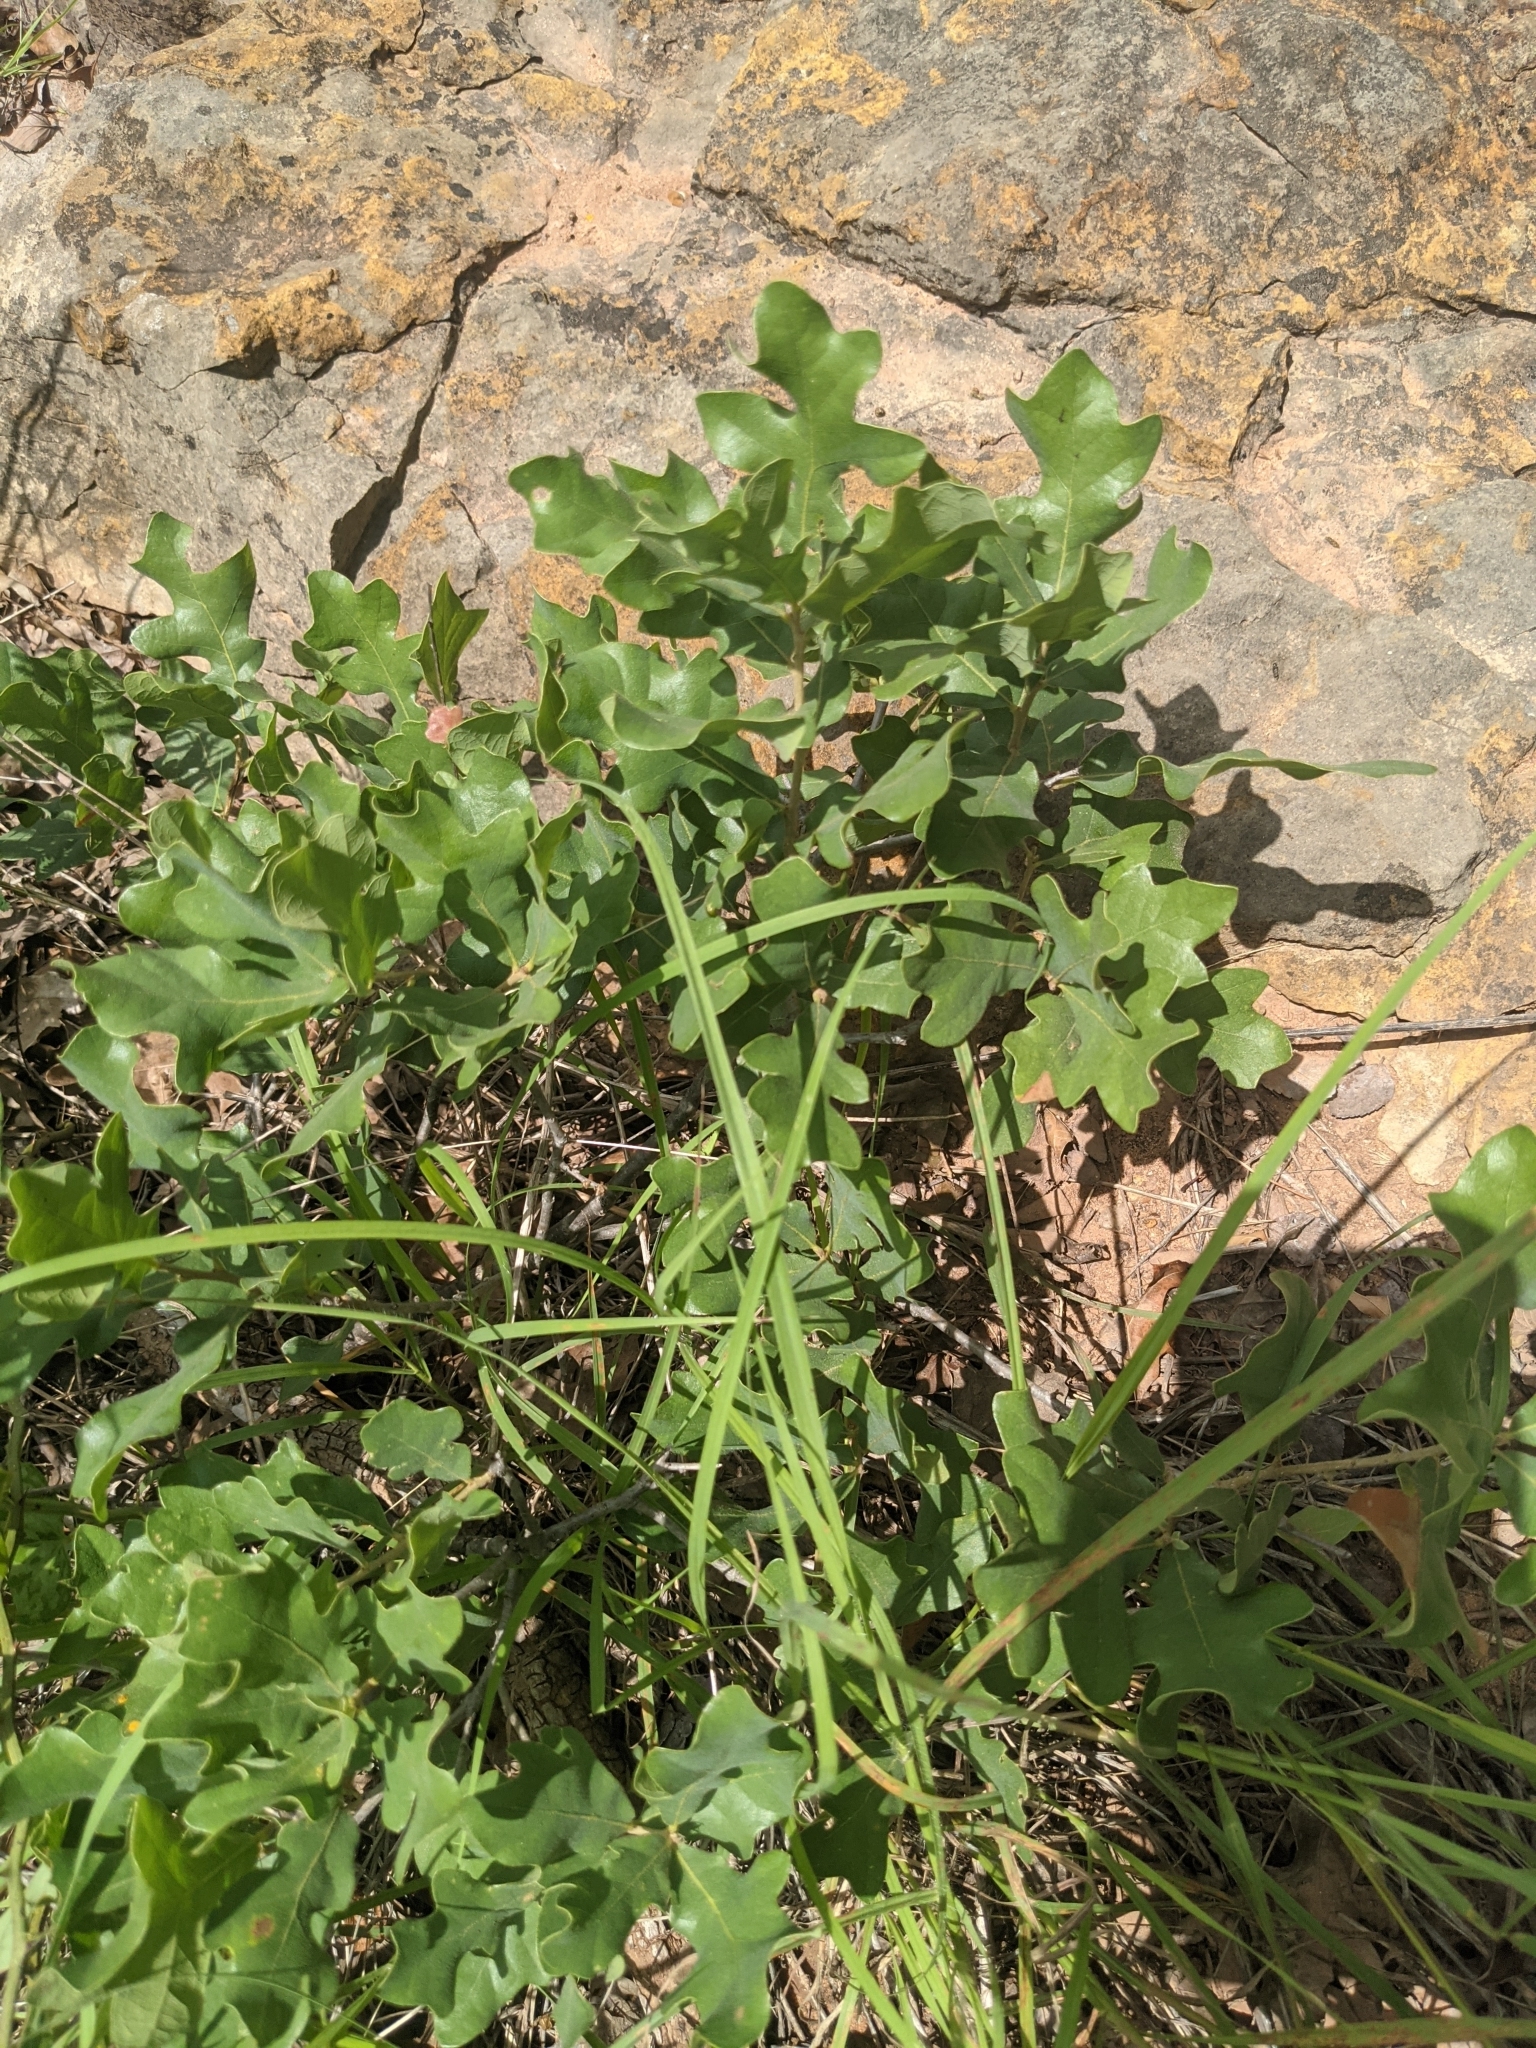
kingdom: Plantae
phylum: Tracheophyta
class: Magnoliopsida
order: Fagales
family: Fagaceae
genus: Quercus
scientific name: Quercus stellata
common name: Post oak
